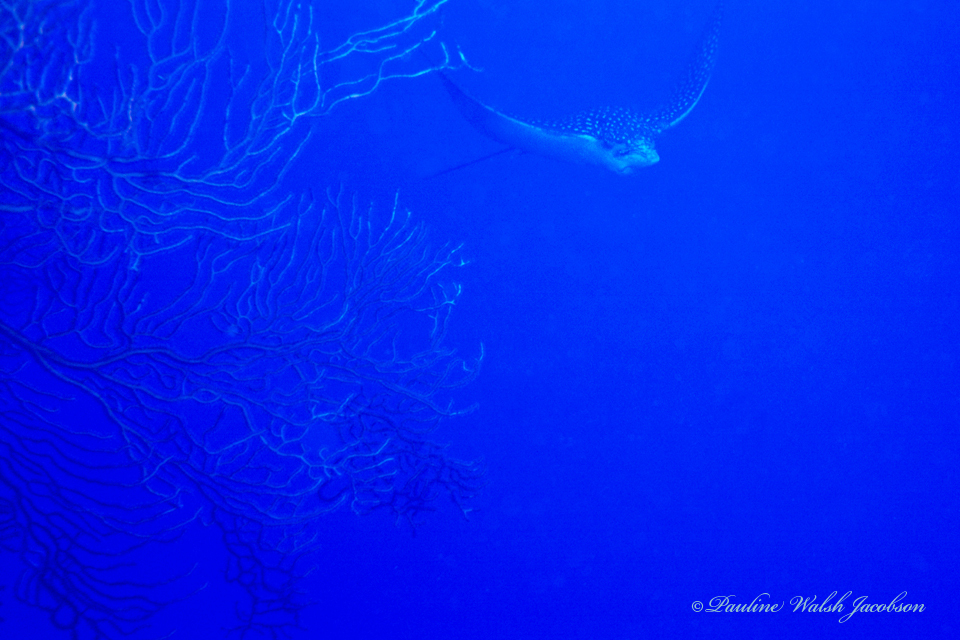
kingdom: Animalia
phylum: Chordata
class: Elasmobranchii
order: Myliobatiformes
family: Myliobatidae
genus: Aetobatus
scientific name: Aetobatus narinari
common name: Spotted eagle ray
